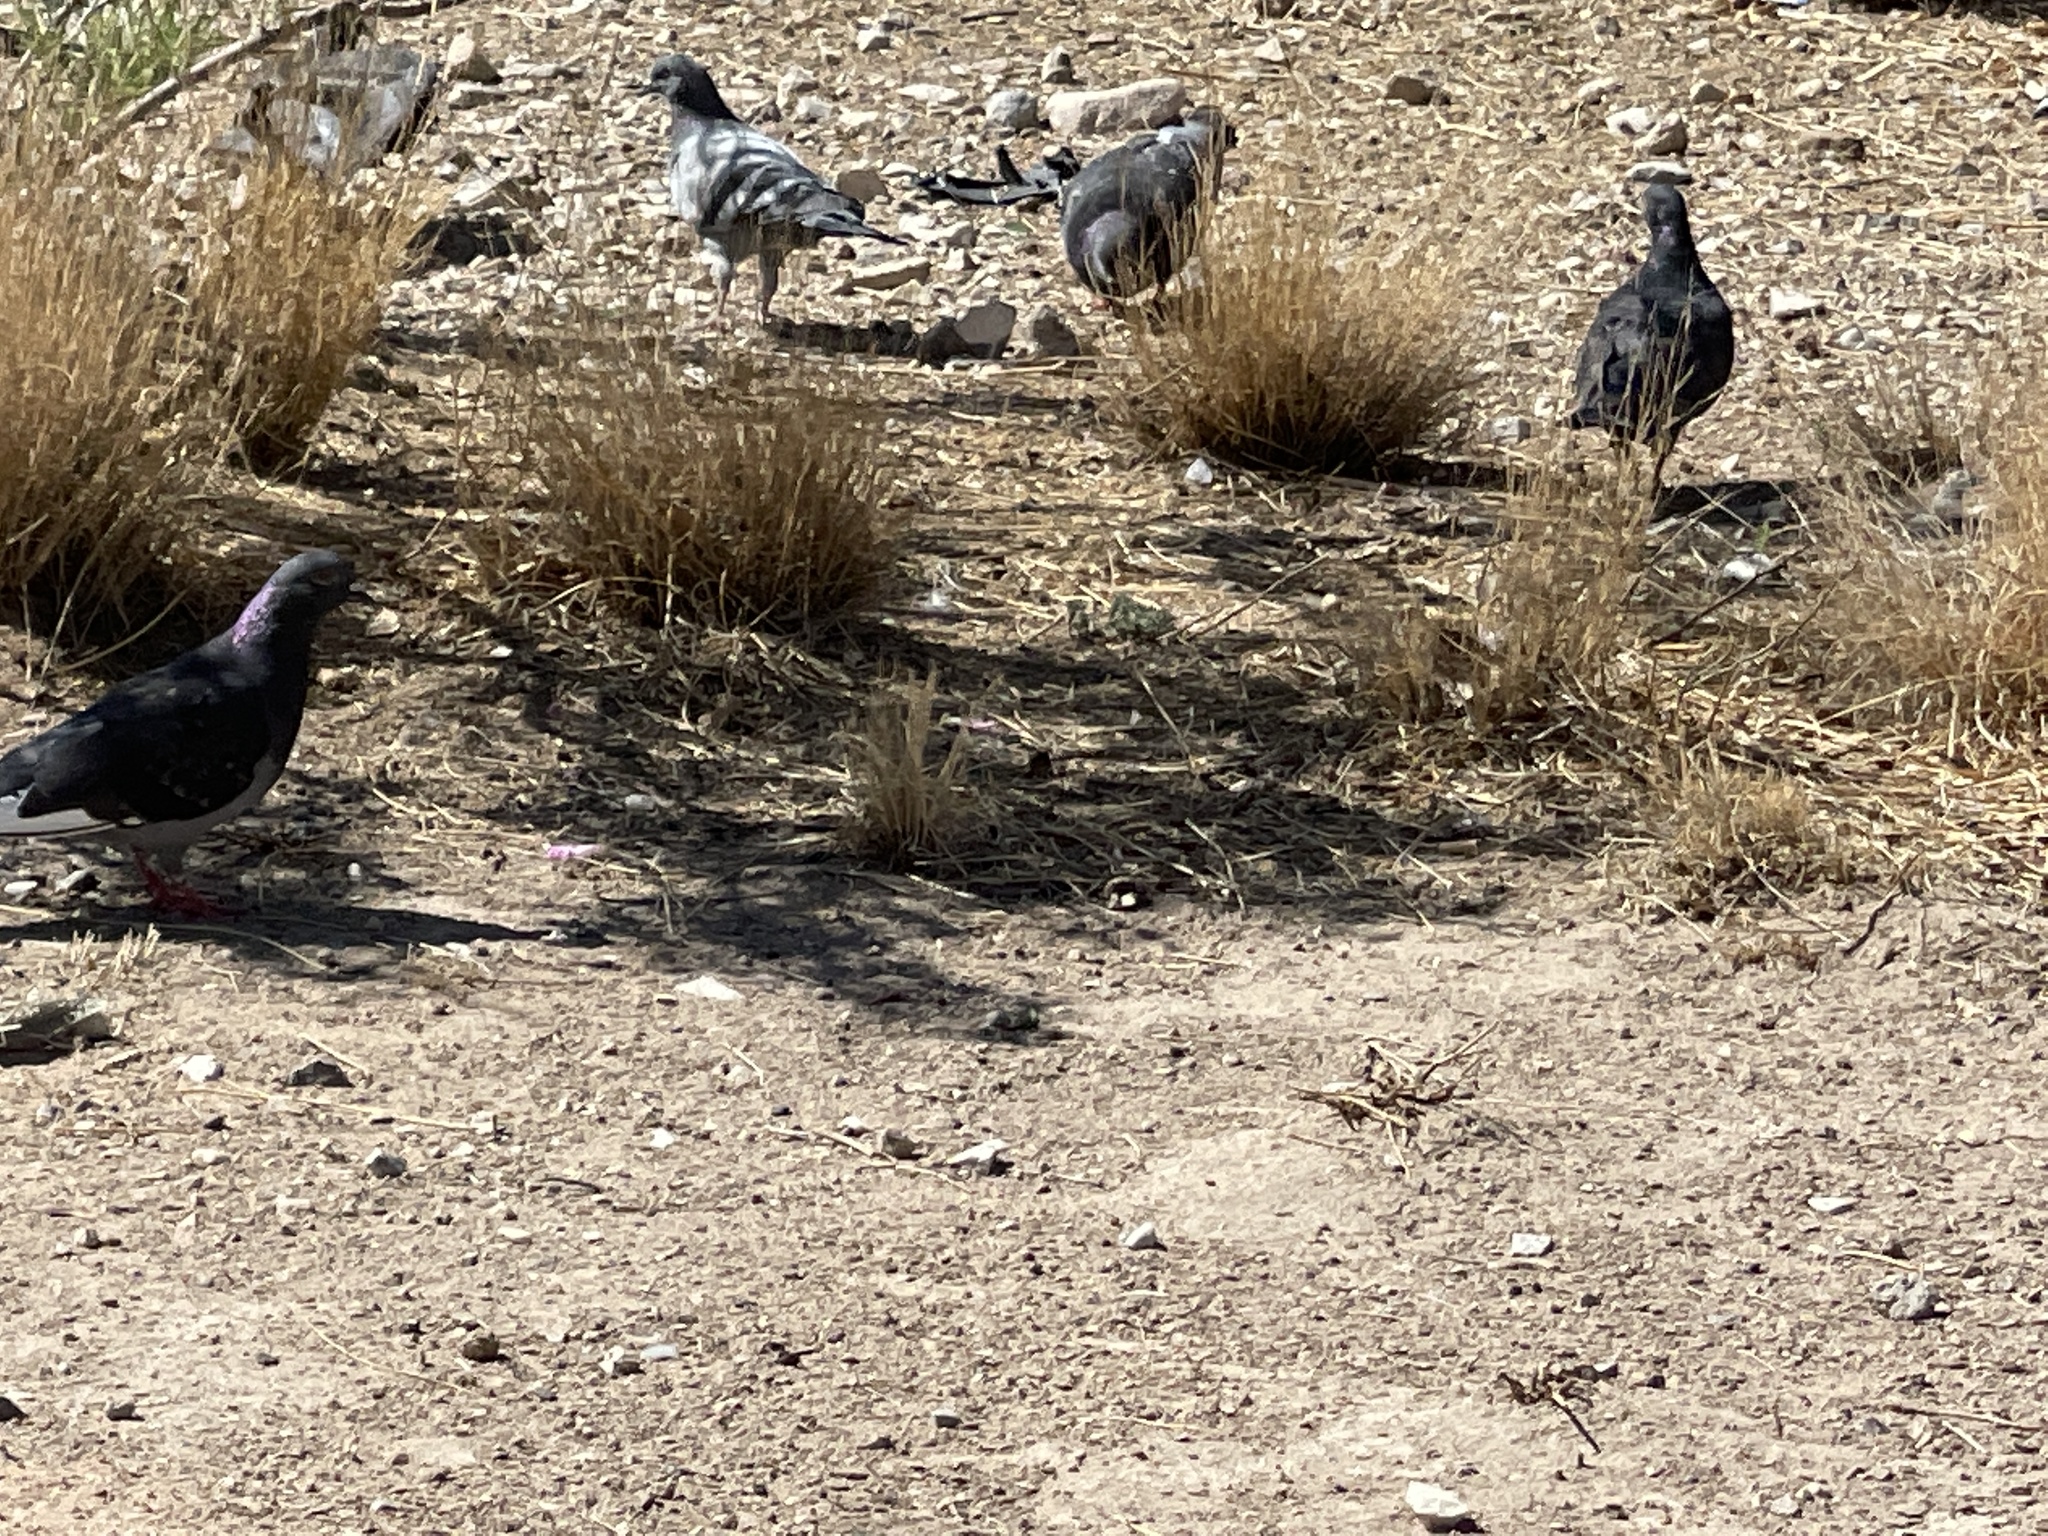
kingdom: Animalia
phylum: Chordata
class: Aves
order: Columbiformes
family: Columbidae
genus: Columba
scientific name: Columba livia
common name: Rock pigeon
